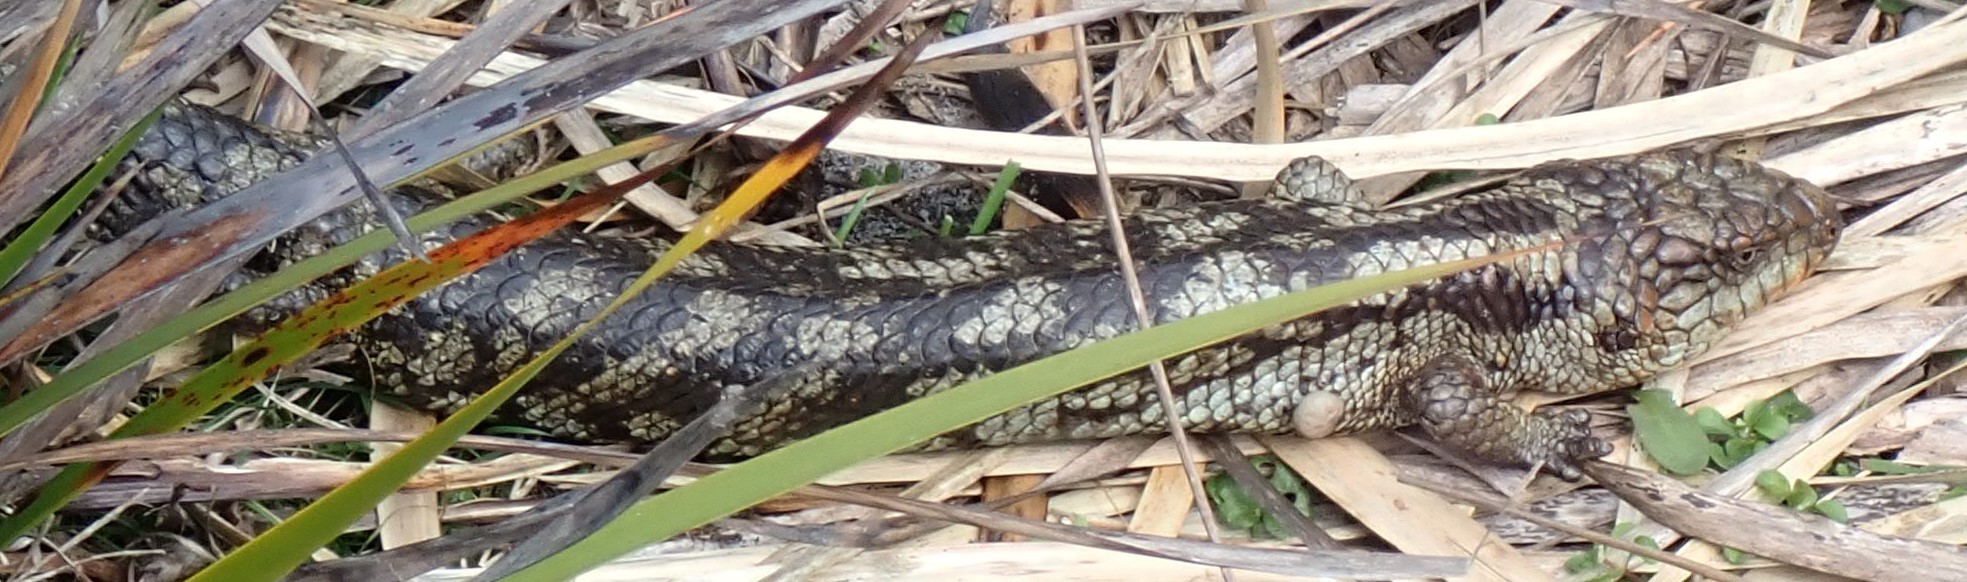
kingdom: Animalia
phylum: Chordata
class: Squamata
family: Scincidae
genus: Tiliqua
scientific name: Tiliqua nigrolutea
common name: Blotched blue-tongued lizard
